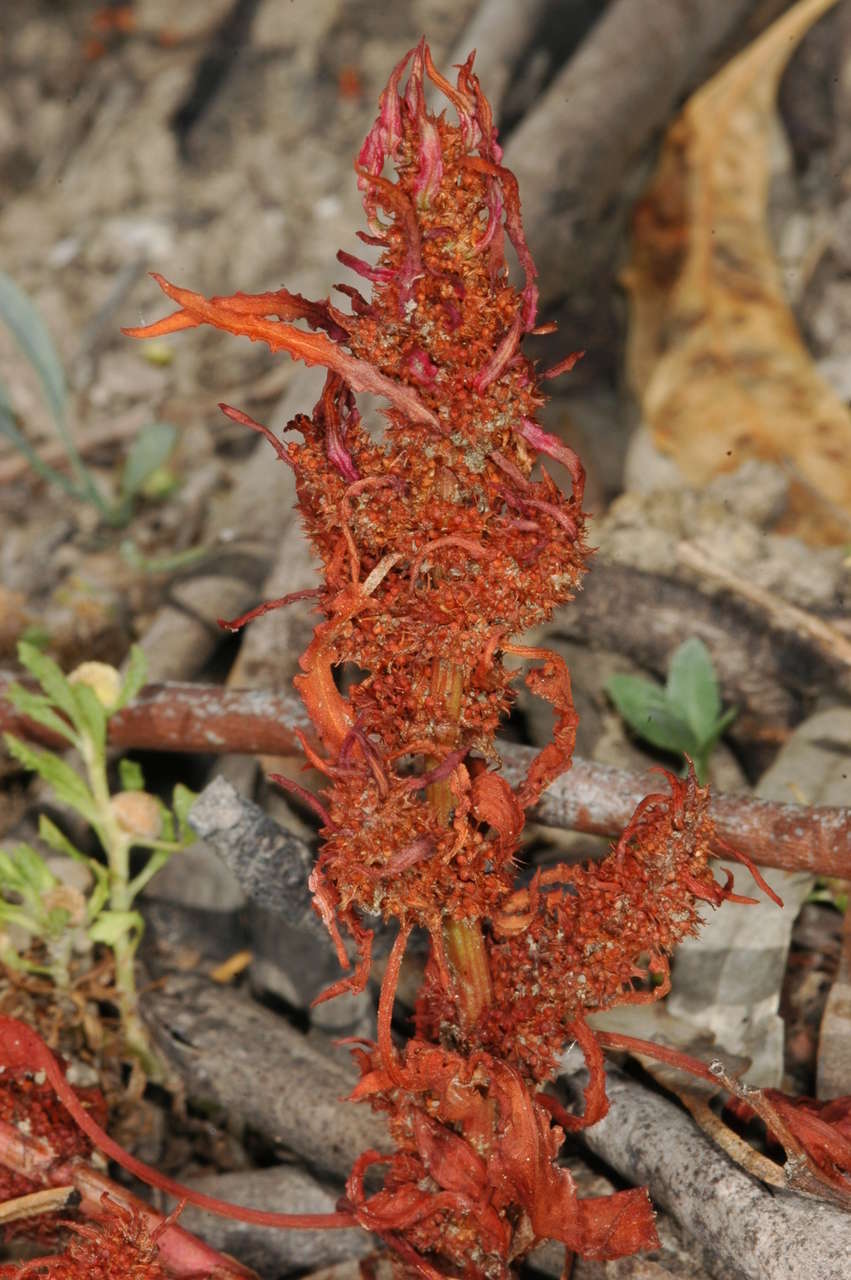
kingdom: Plantae
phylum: Tracheophyta
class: Magnoliopsida
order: Caryophyllales
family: Polygonaceae
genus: Rumex
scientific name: Rumex crystallinus
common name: Glistening dock
